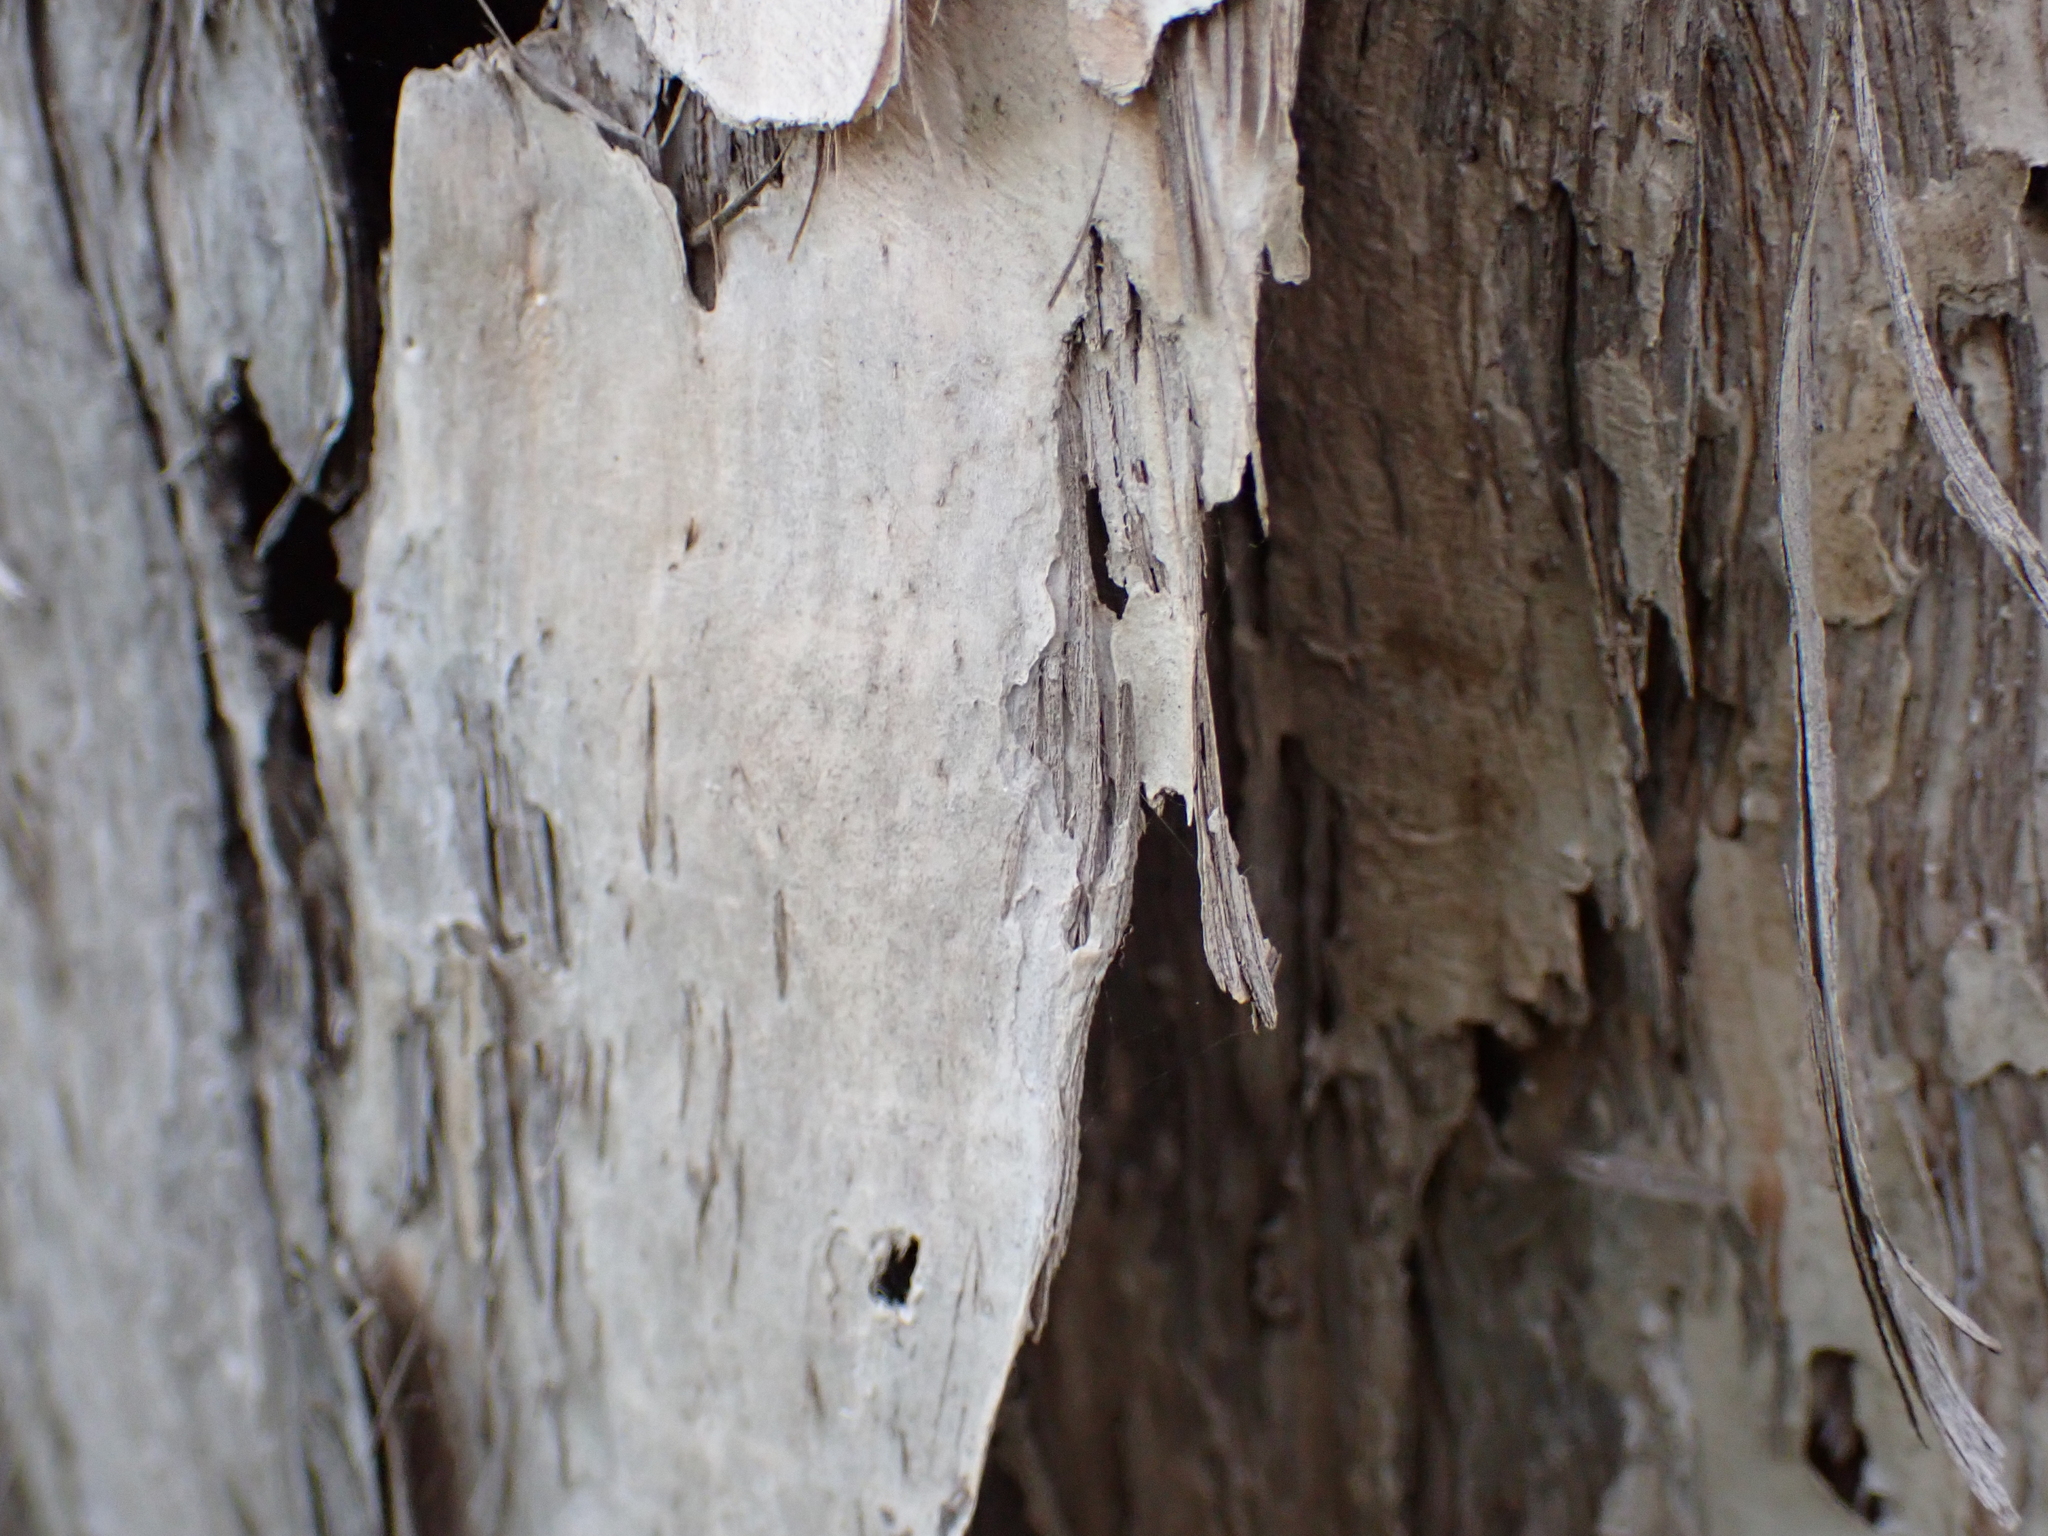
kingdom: Plantae
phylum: Tracheophyta
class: Magnoliopsida
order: Myrtales
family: Myrtaceae
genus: Melaleuca
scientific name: Melaleuca quinquenervia
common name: Punktree
